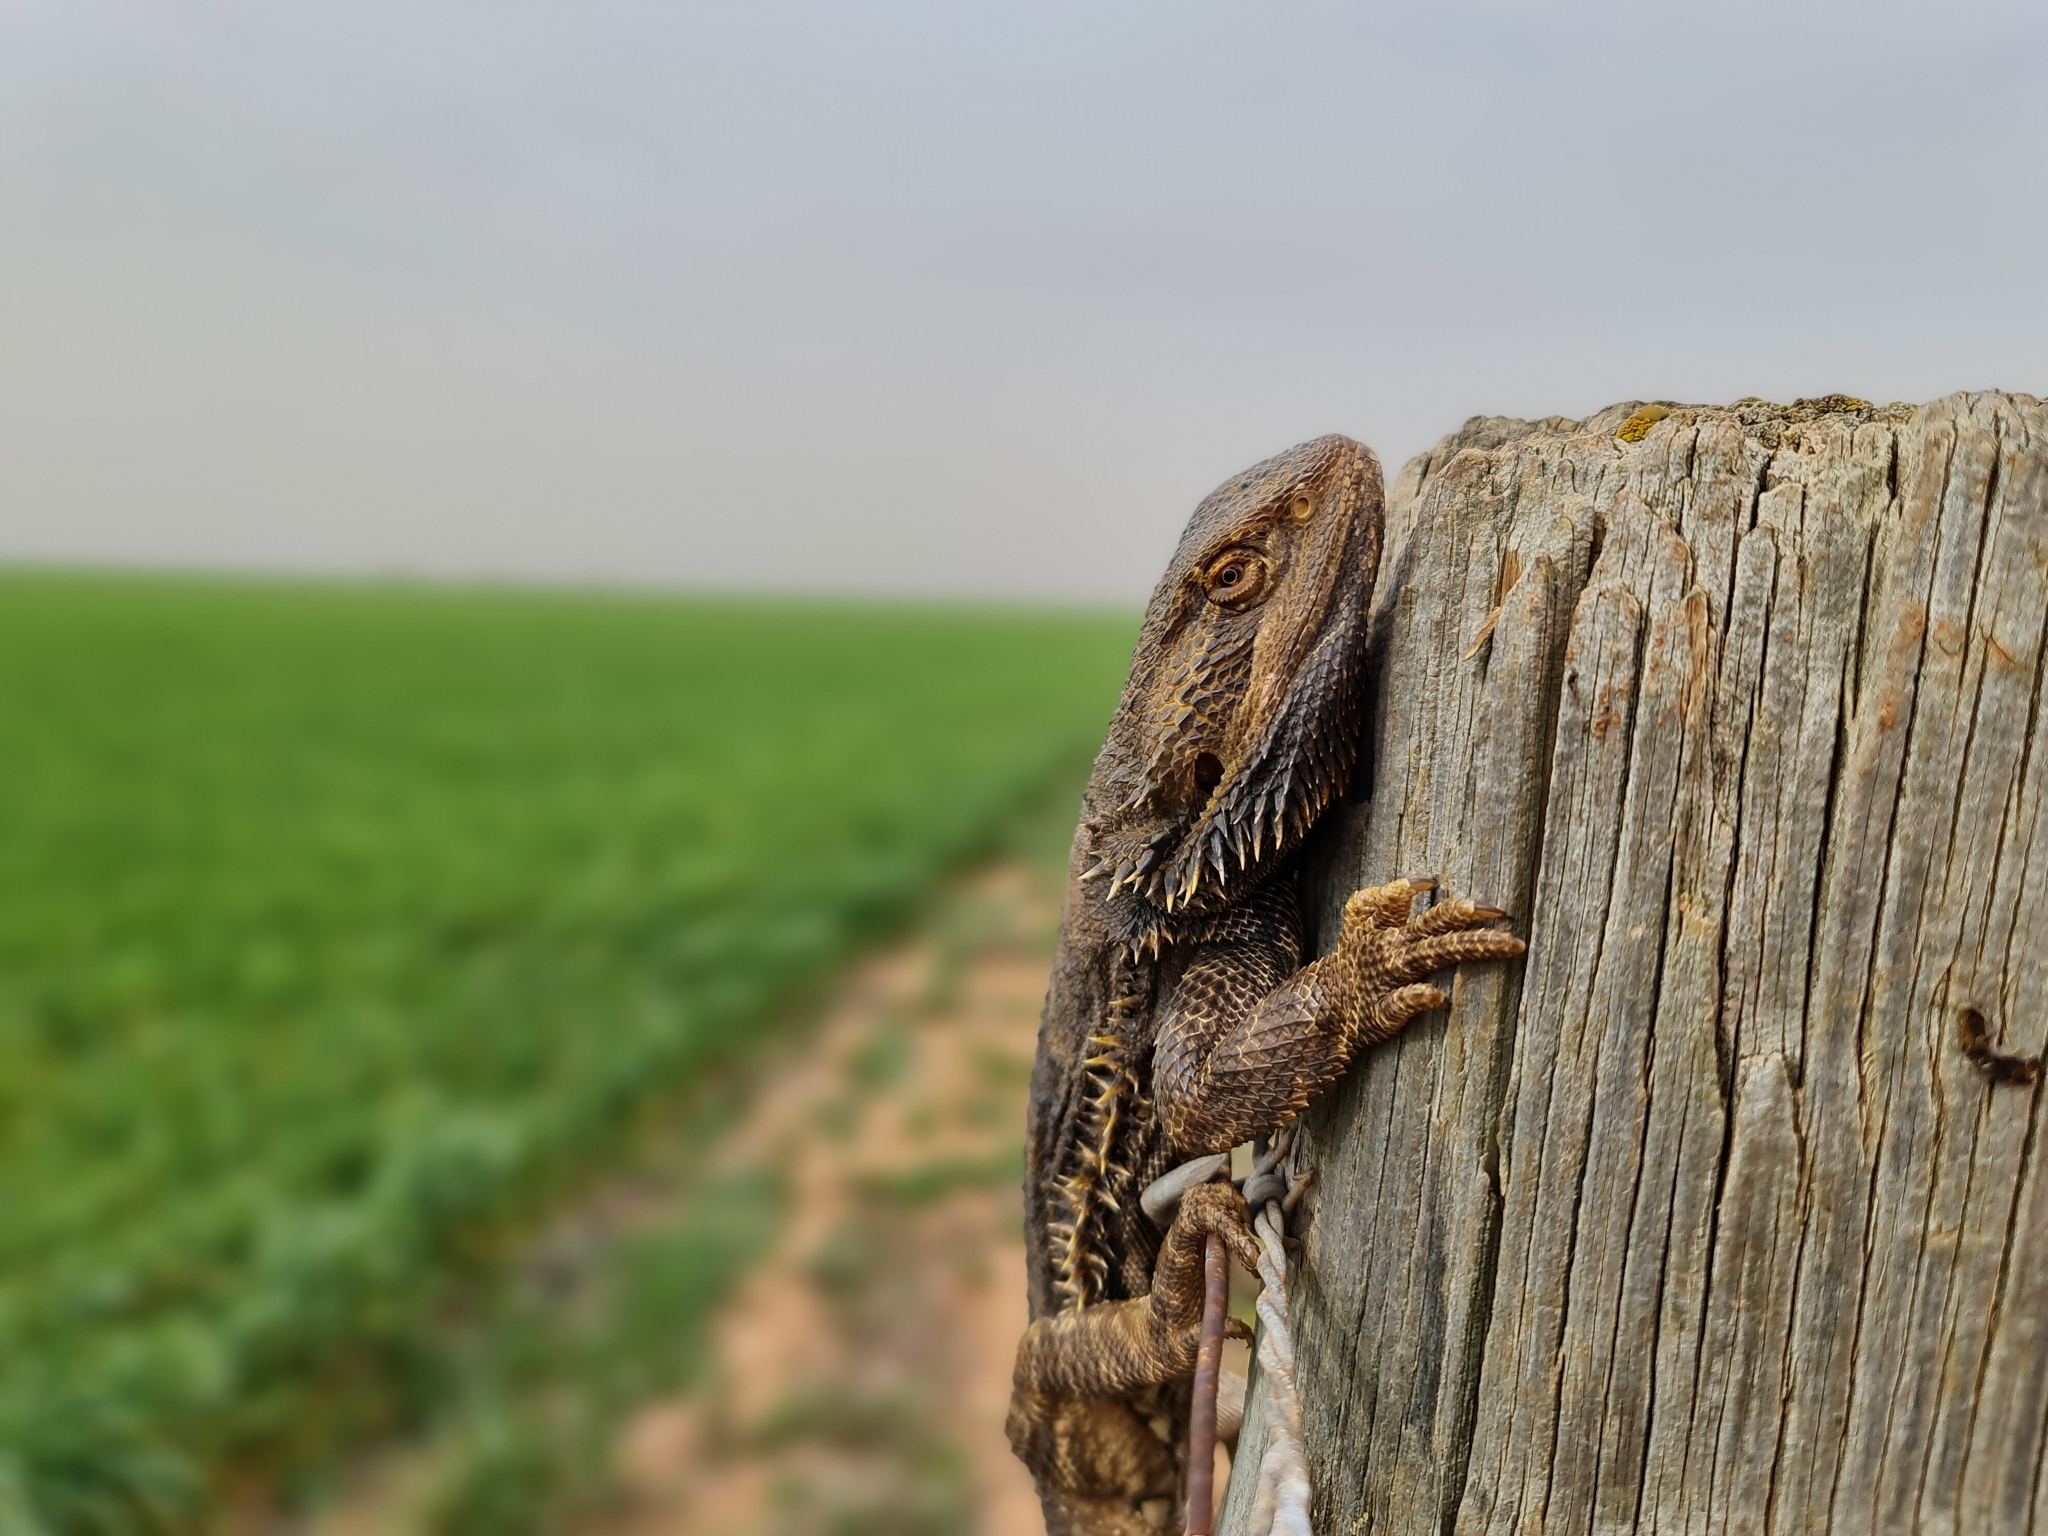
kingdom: Animalia
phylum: Chordata
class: Squamata
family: Agamidae
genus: Pogona
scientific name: Pogona vitticeps
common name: Central bearded dragon
